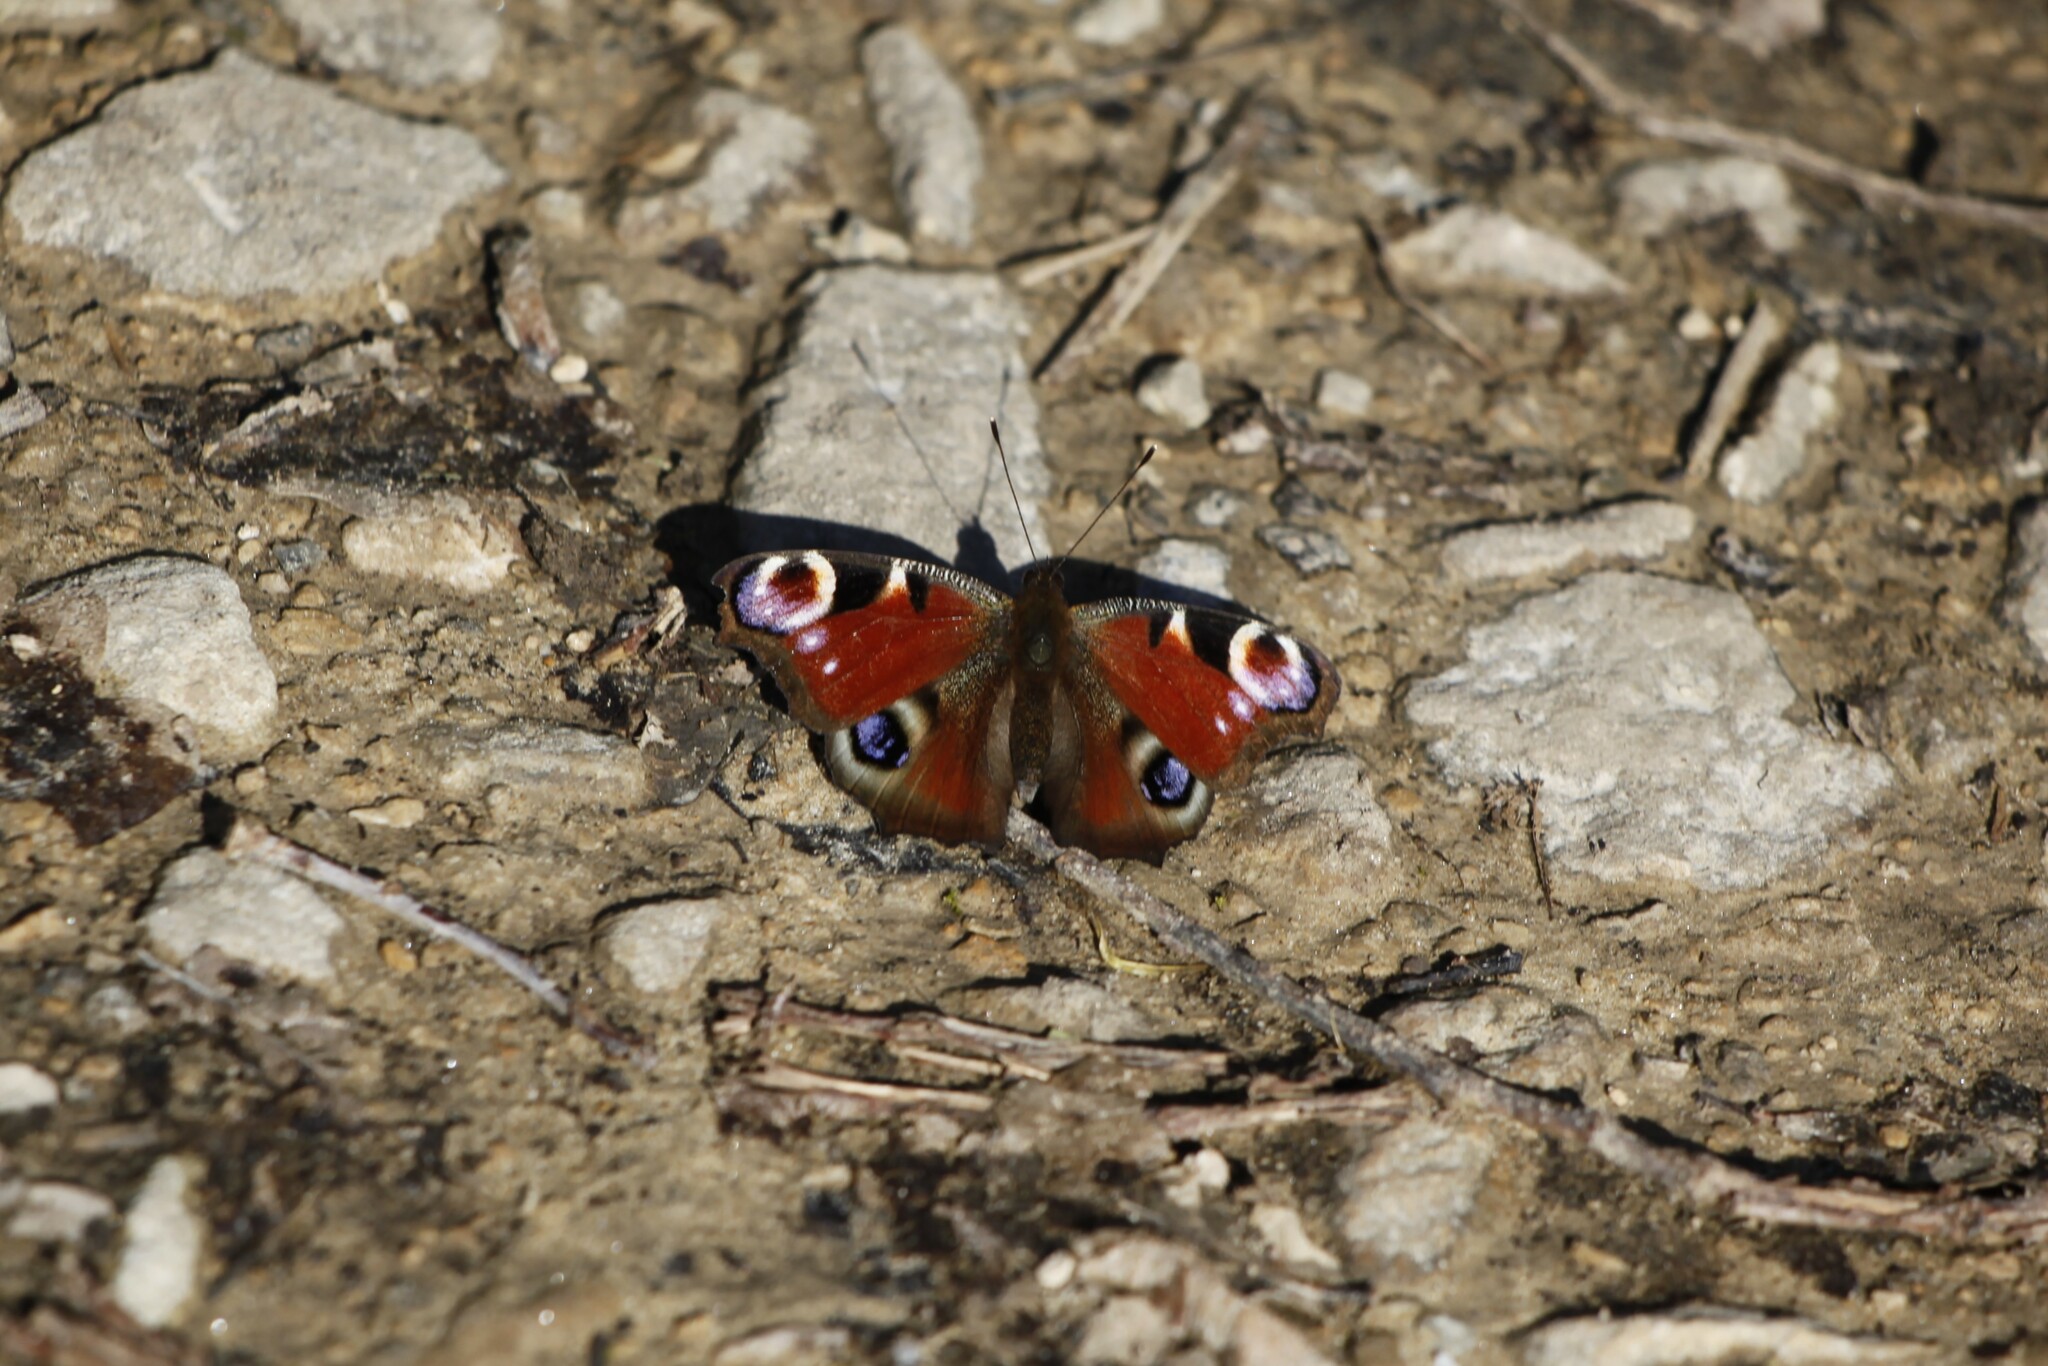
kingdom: Animalia
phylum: Arthropoda
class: Insecta
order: Lepidoptera
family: Nymphalidae
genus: Aglais
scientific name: Aglais io
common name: Peacock
